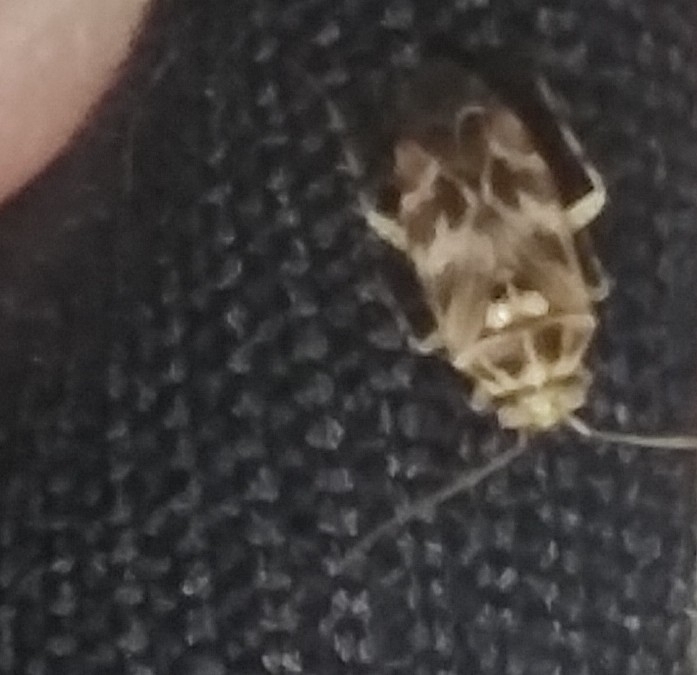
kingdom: Animalia
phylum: Arthropoda
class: Insecta
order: Hemiptera
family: Miridae
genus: Tropidosteptes
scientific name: Tropidosteptes quercicola
